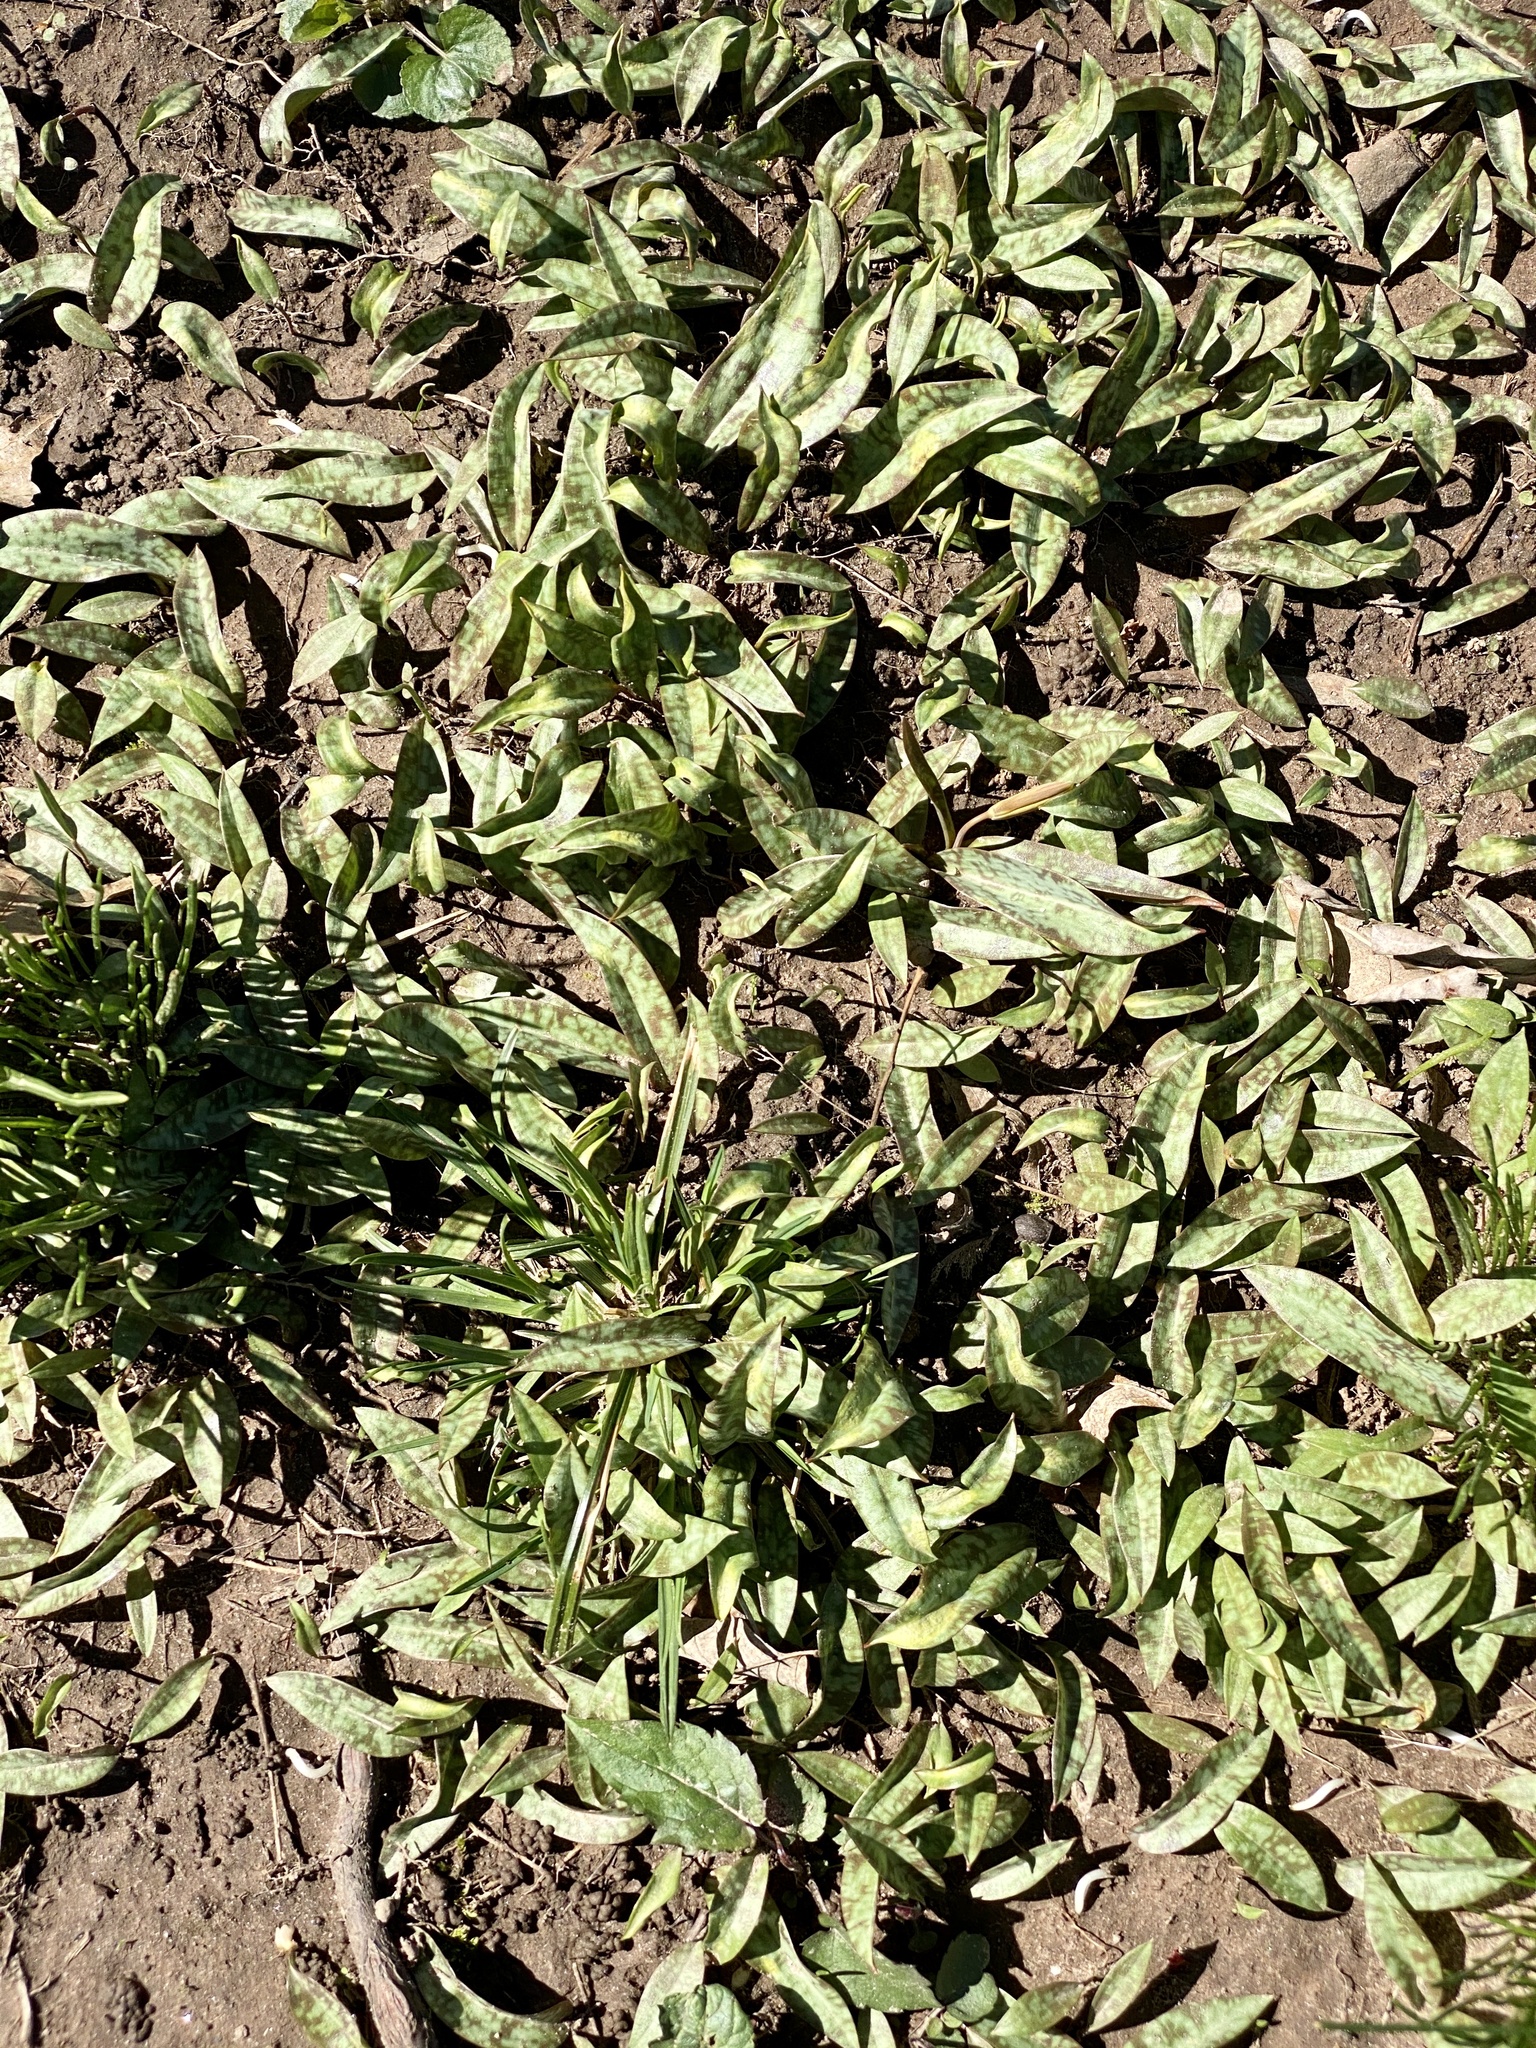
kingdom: Plantae
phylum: Tracheophyta
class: Liliopsida
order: Liliales
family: Liliaceae
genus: Erythronium
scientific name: Erythronium americanum
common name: Yellow adder's-tongue
